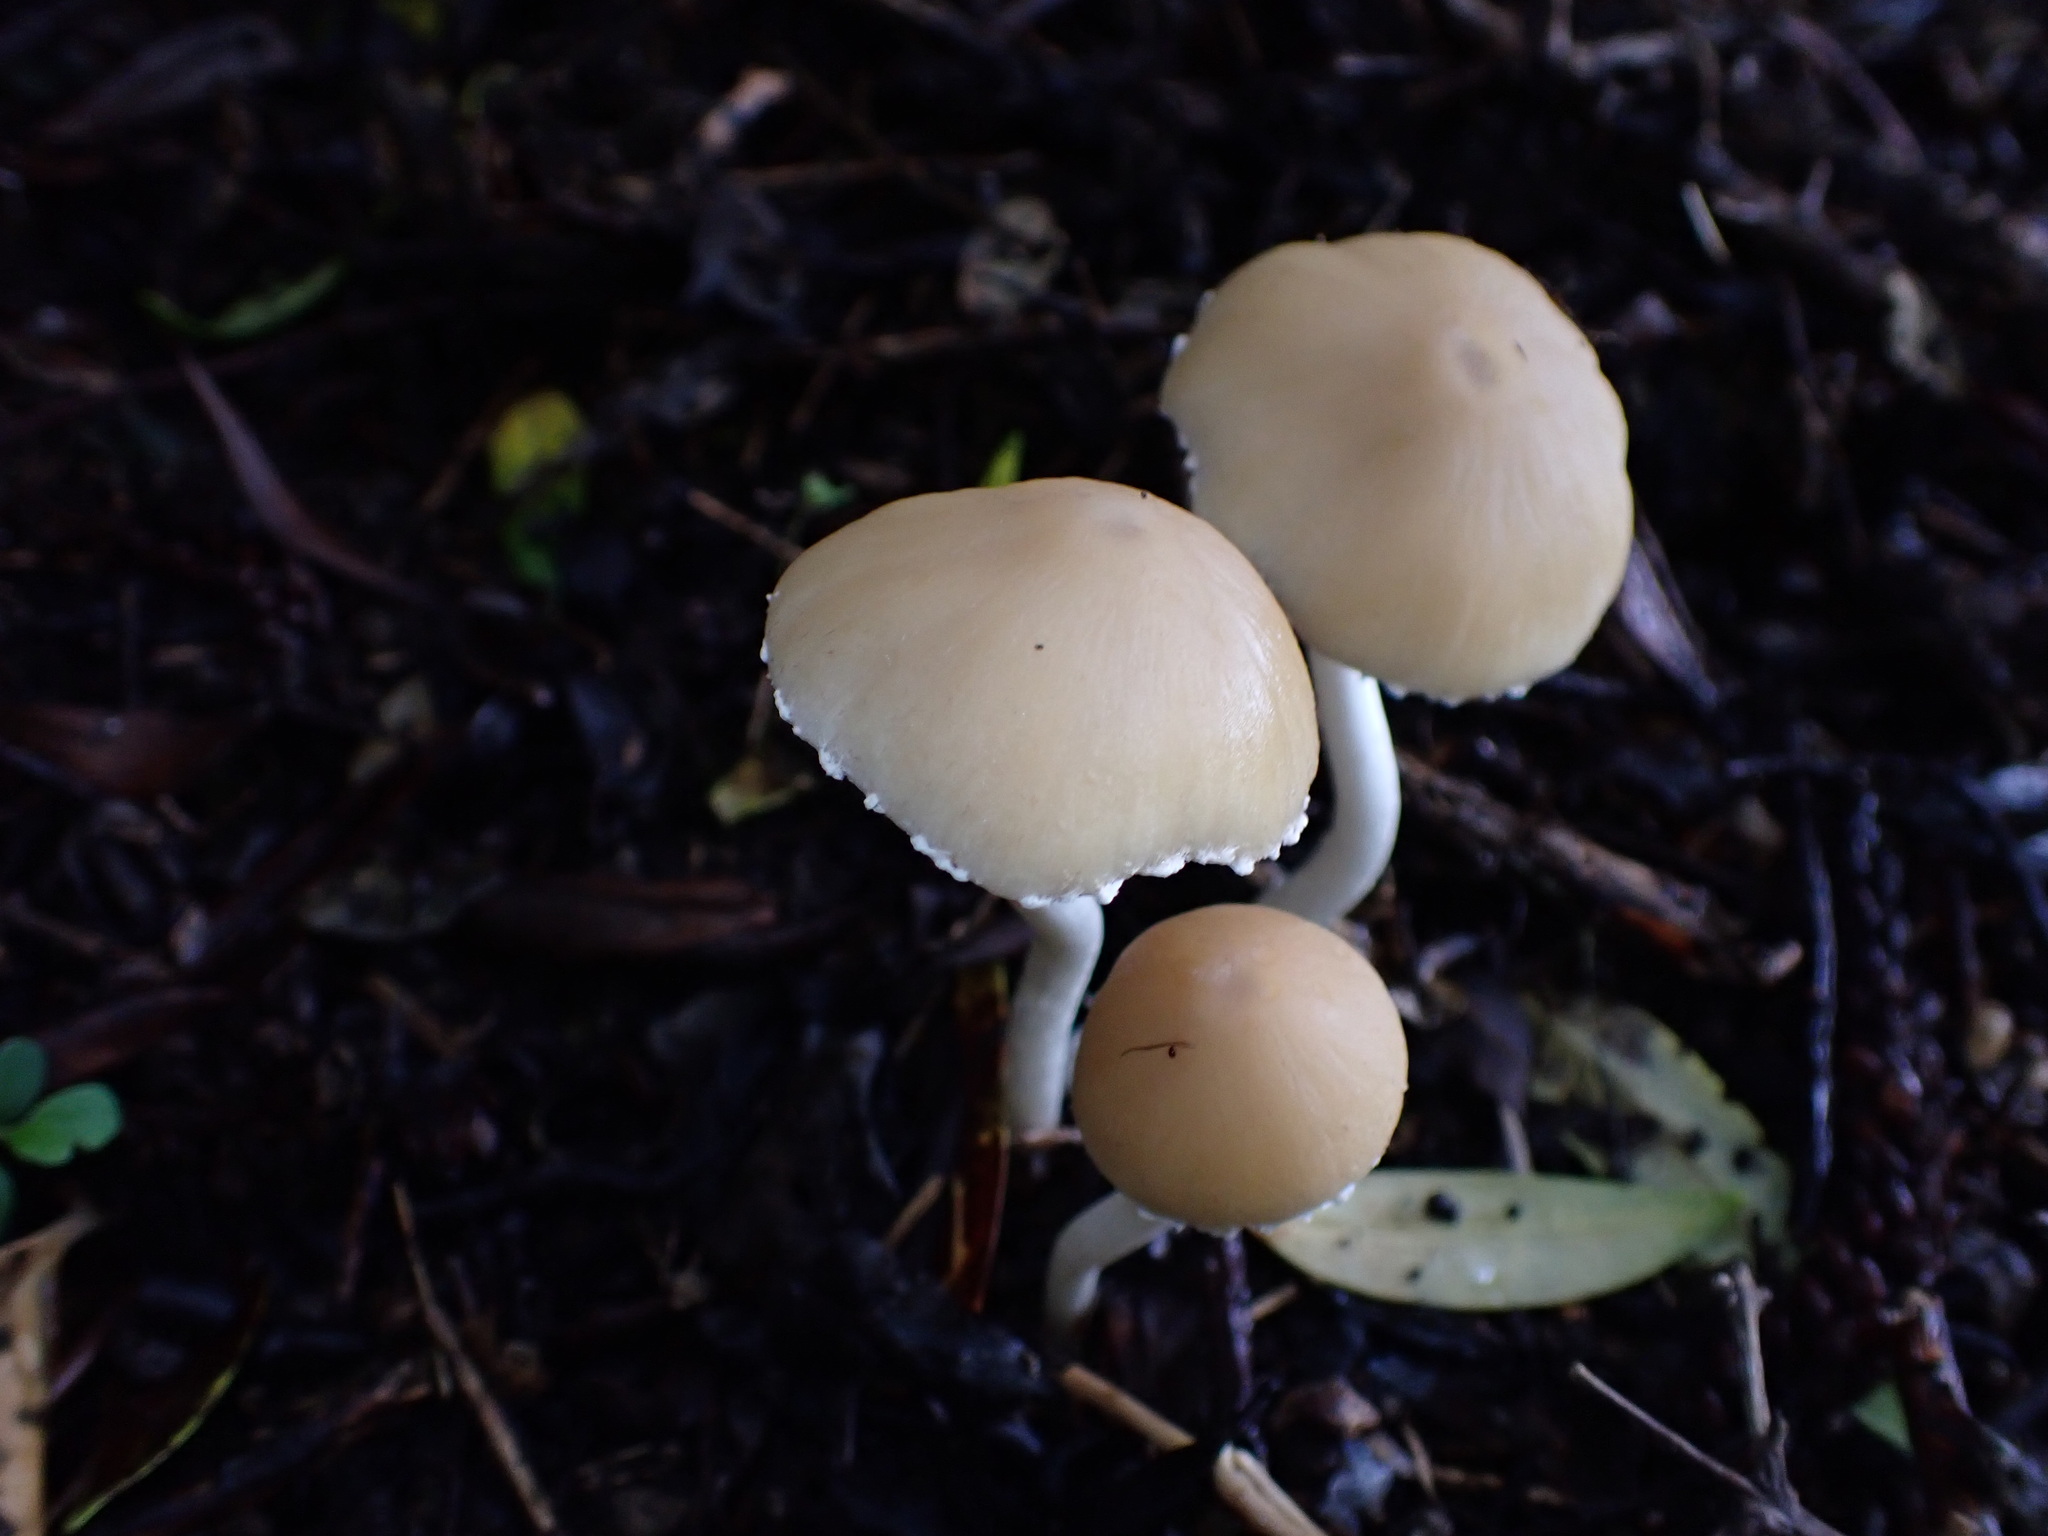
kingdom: Fungi
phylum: Basidiomycota
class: Agaricomycetes
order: Agaricales
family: Psathyrellaceae
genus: Candolleomyces
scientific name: Candolleomyces candolleanus
